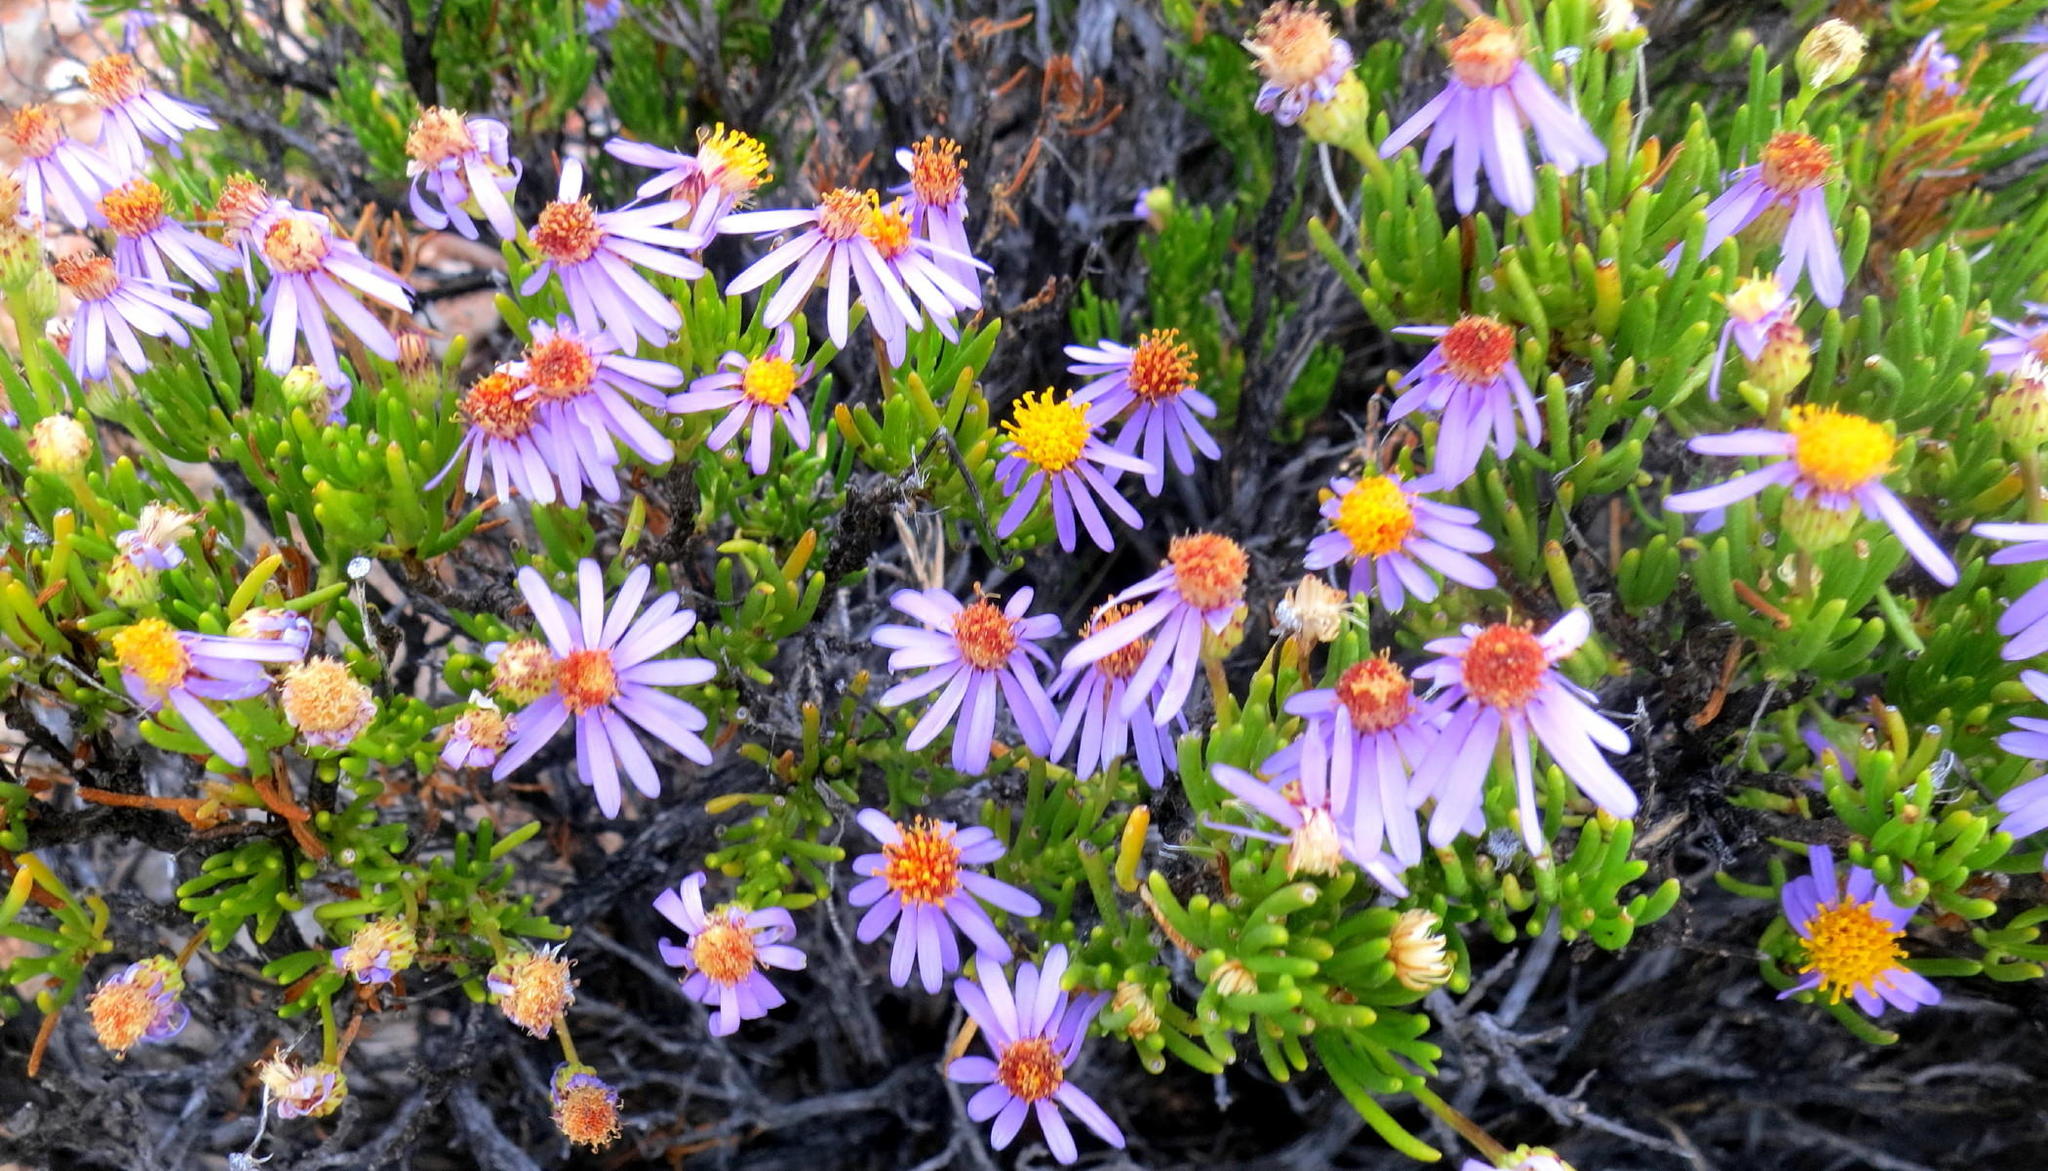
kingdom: Plantae
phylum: Tracheophyta
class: Magnoliopsida
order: Asterales
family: Asteraceae
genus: Felicia
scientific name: Felicia filifolia
